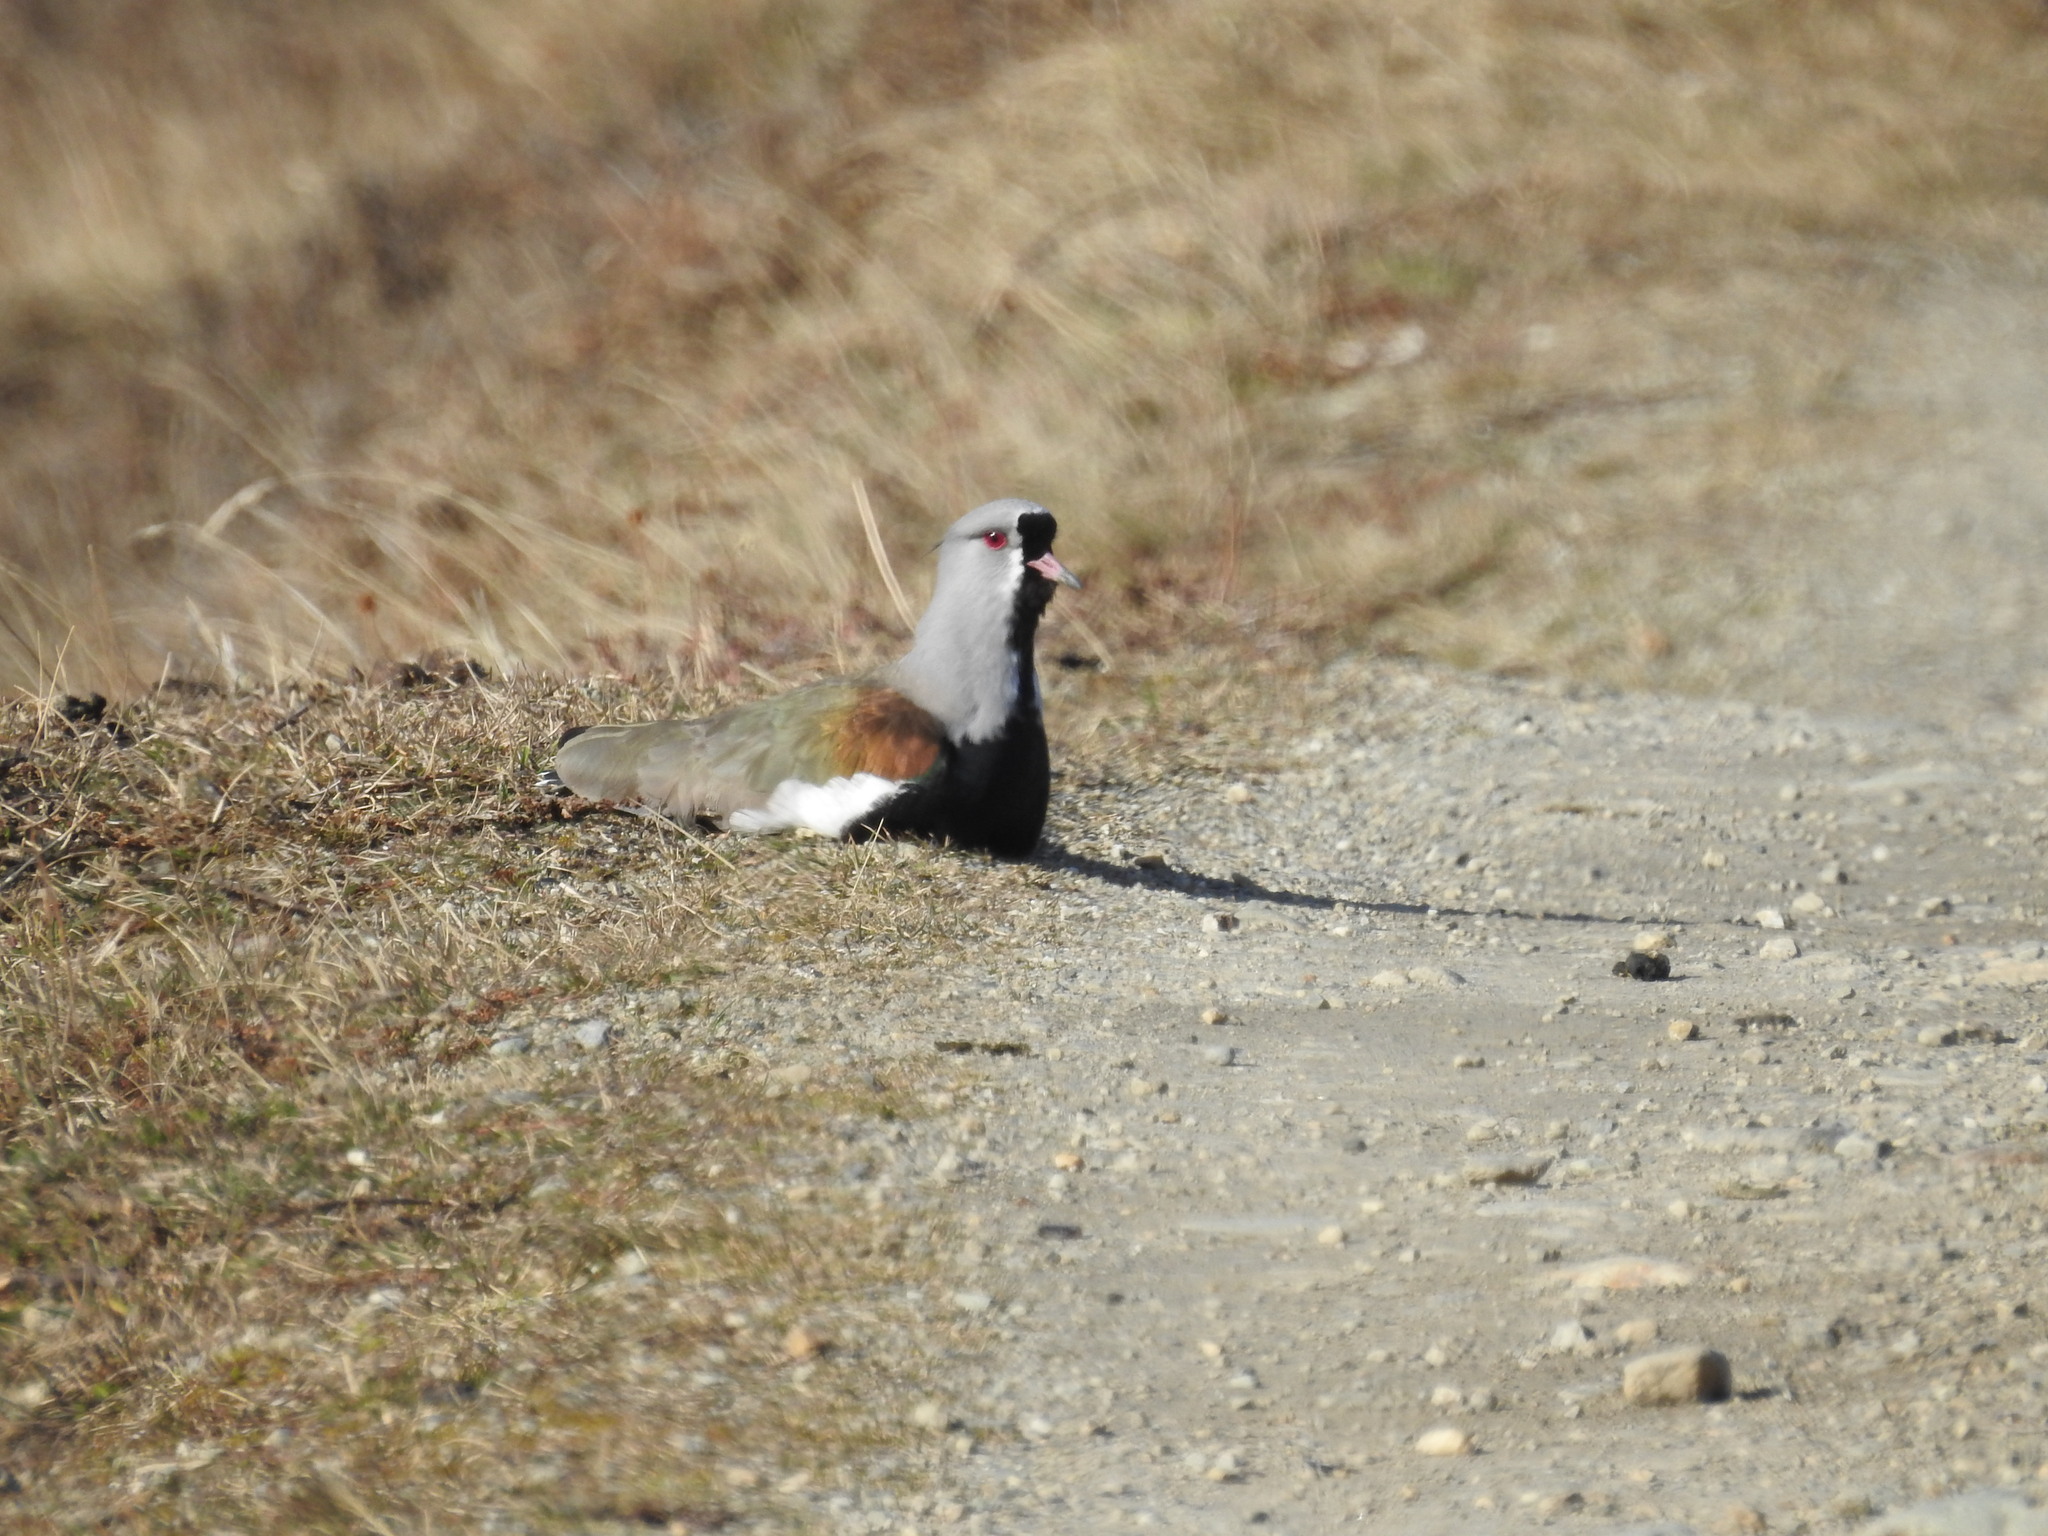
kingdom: Animalia
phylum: Chordata
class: Aves
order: Charadriiformes
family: Charadriidae
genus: Vanellus
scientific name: Vanellus chilensis
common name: Southern lapwing
